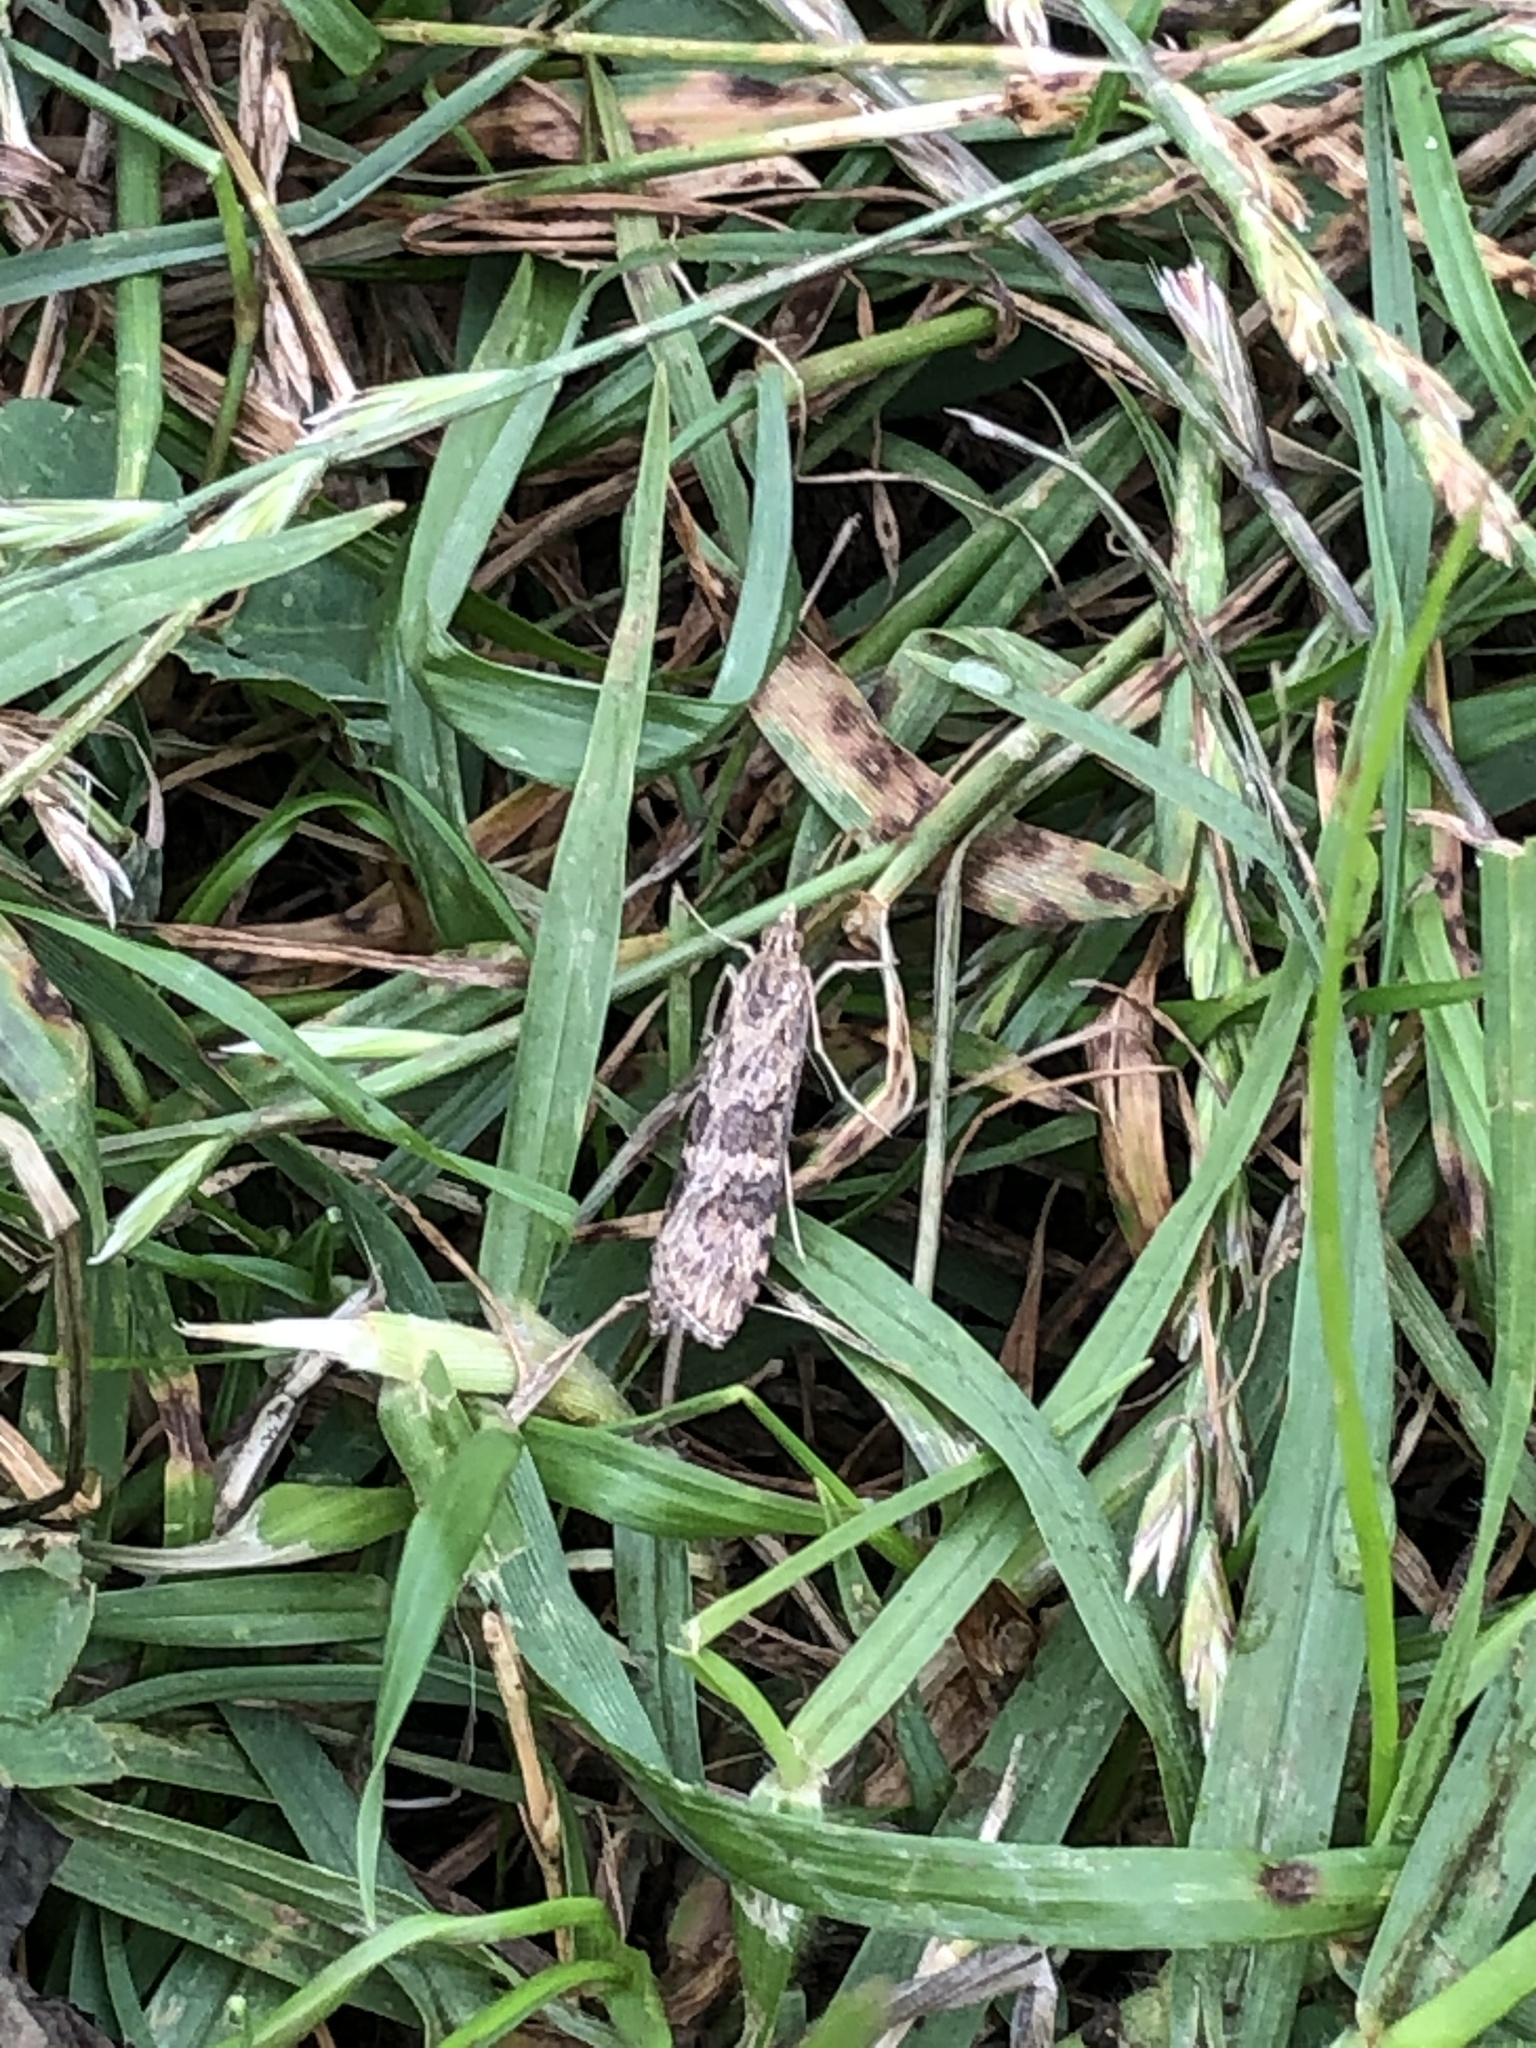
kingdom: Animalia
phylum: Arthropoda
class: Insecta
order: Lepidoptera
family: Crambidae
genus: Nomophila
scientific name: Nomophila nearctica
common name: American rush veneer
